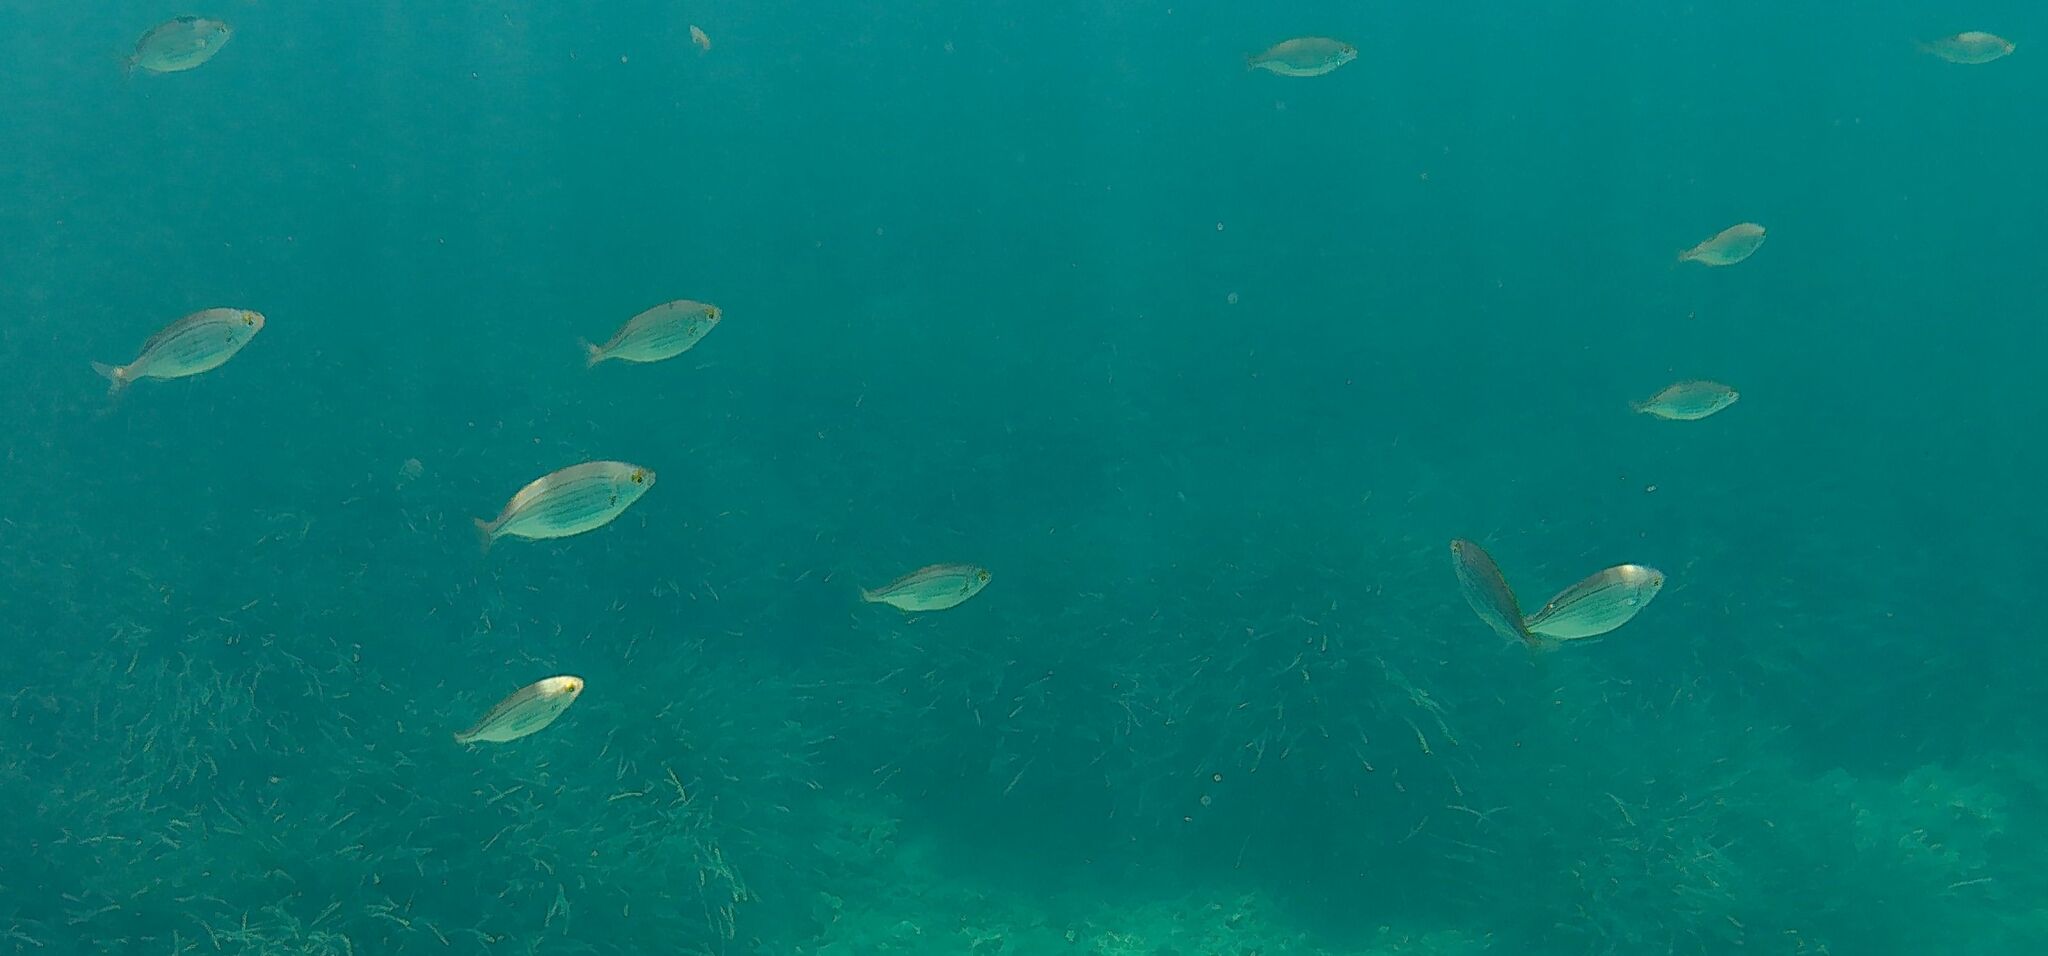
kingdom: Animalia
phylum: Chordata
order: Perciformes
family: Sparidae
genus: Sarpa
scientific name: Sarpa salpa
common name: Salema
